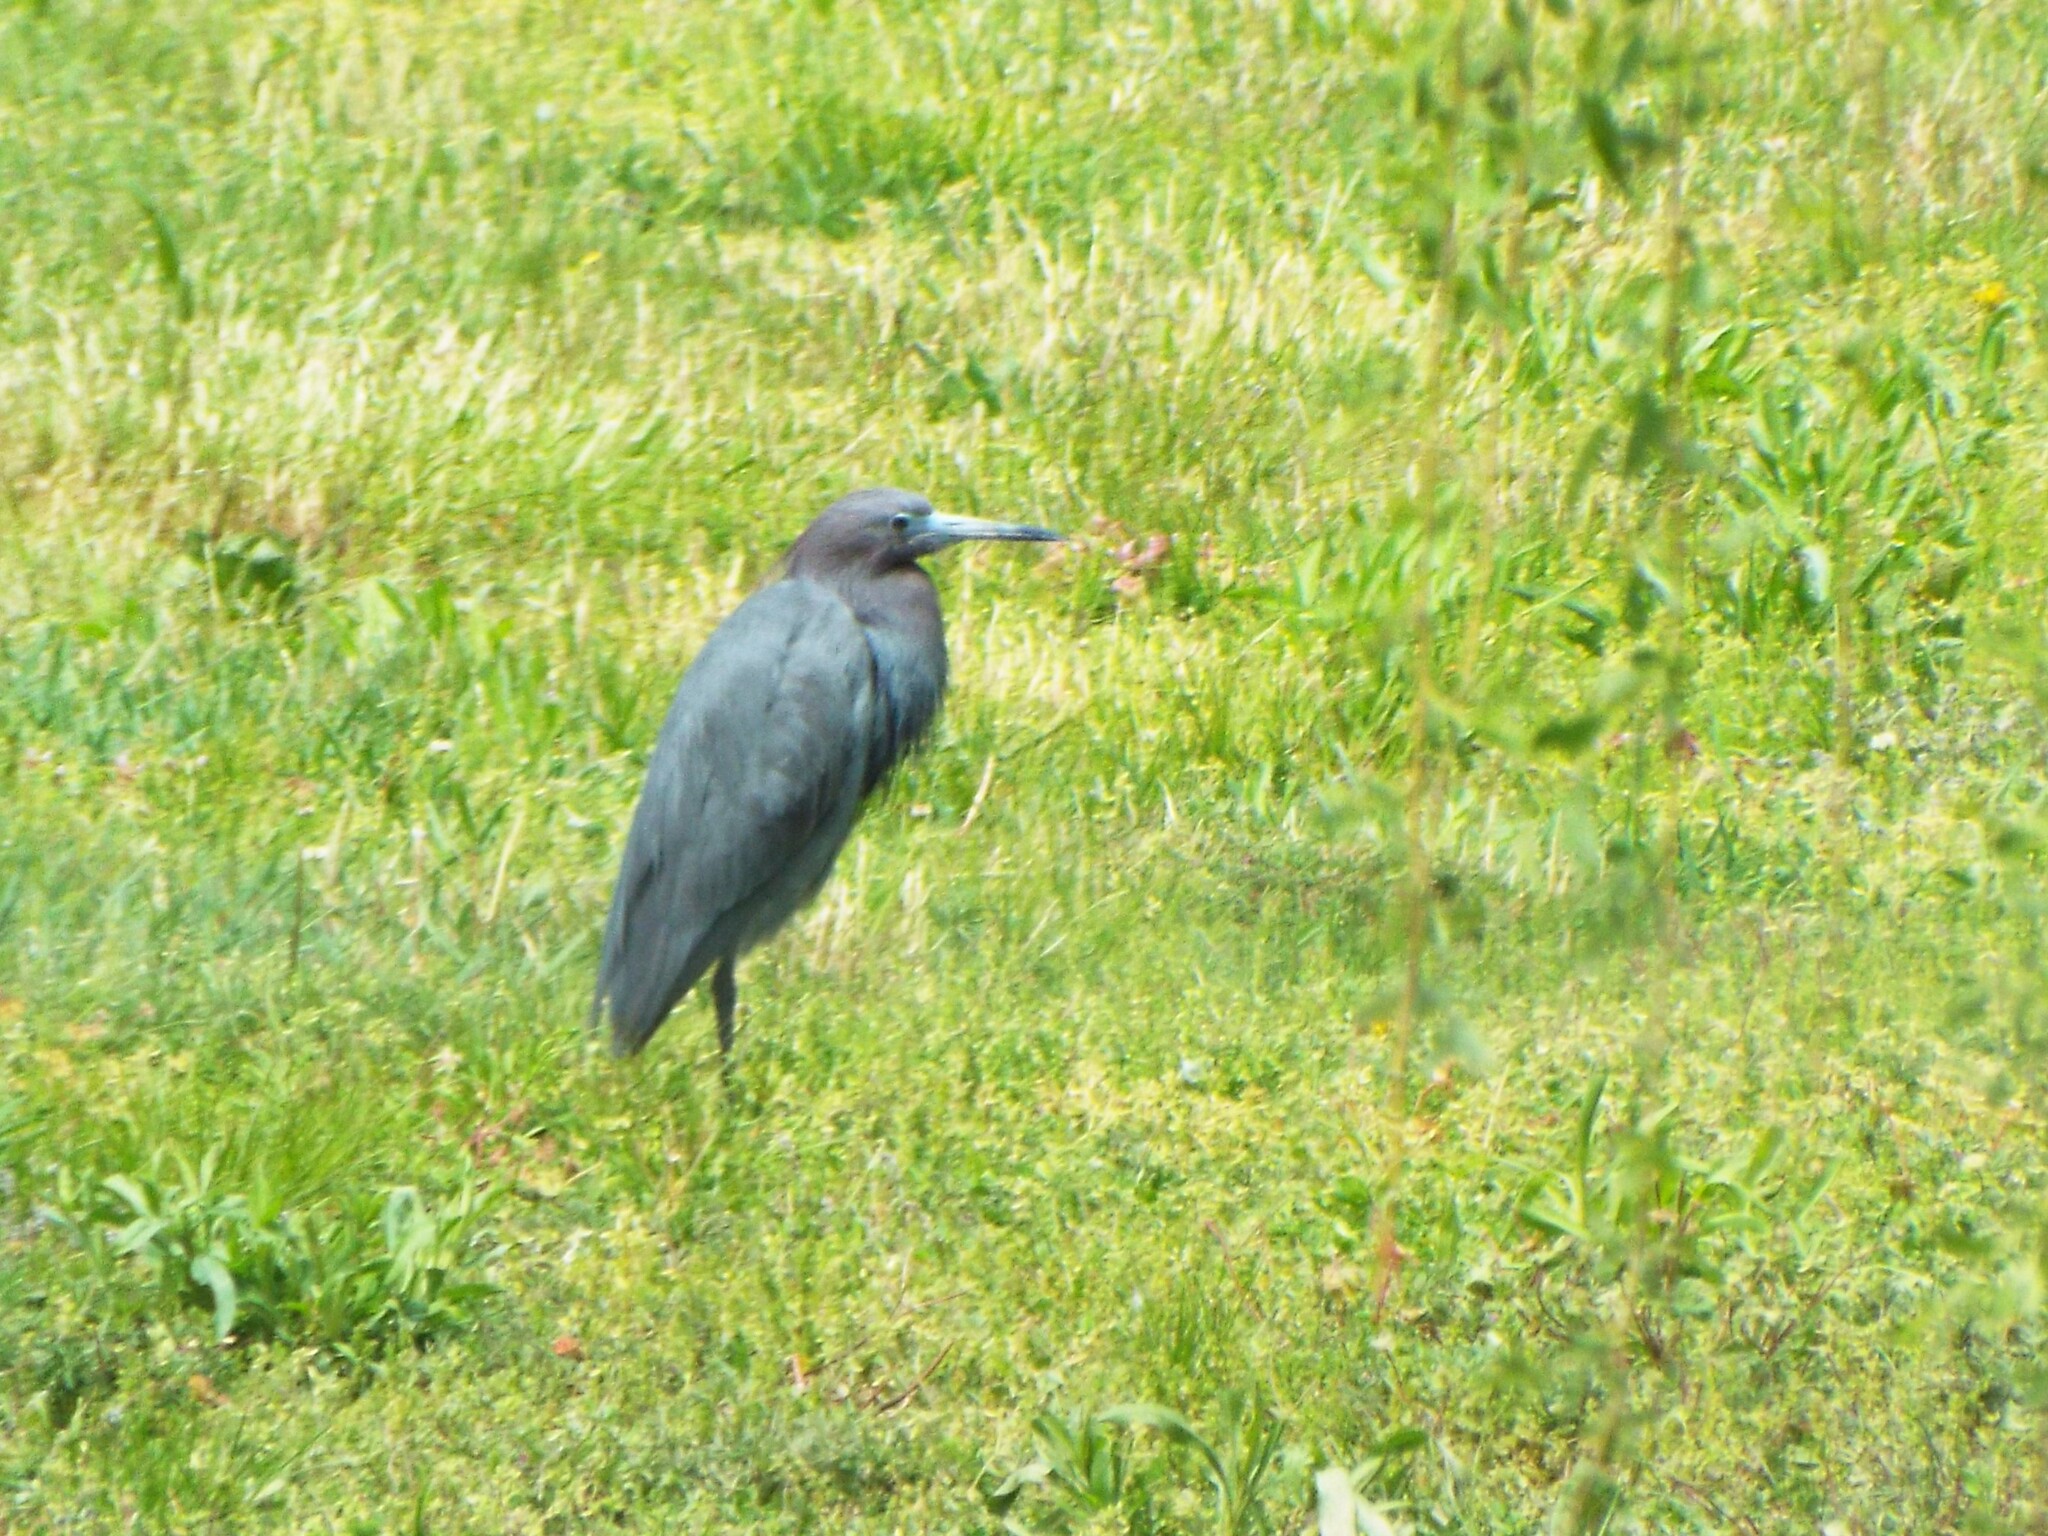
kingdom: Animalia
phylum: Chordata
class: Aves
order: Pelecaniformes
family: Ardeidae
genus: Egretta
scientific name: Egretta caerulea
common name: Little blue heron
